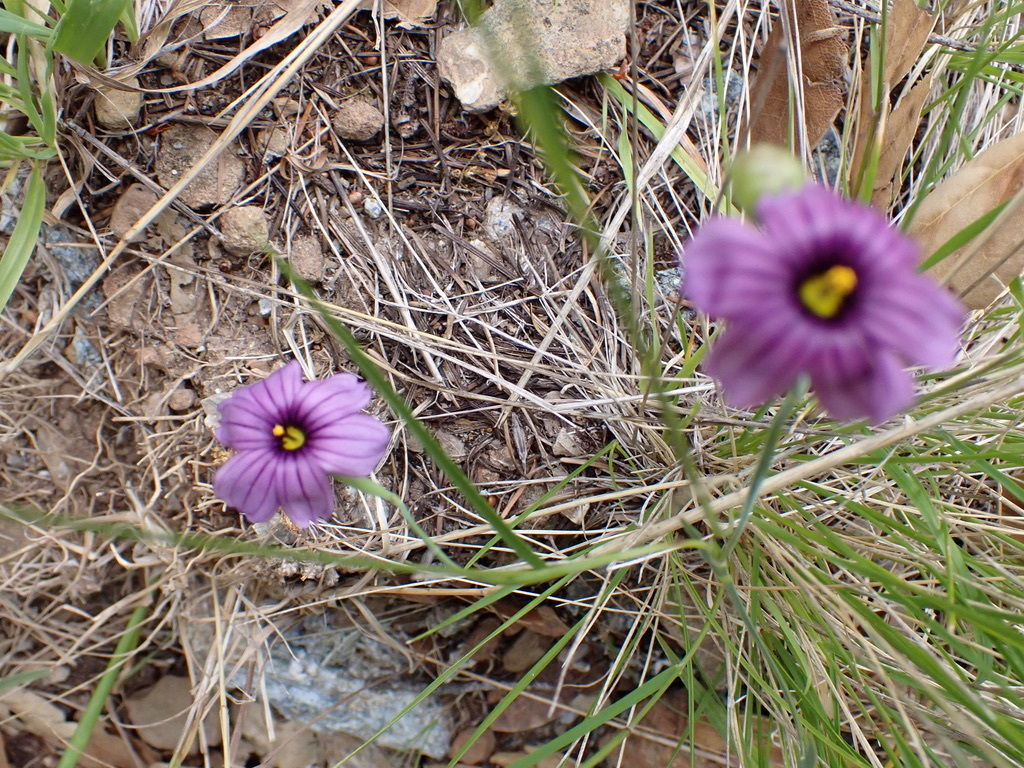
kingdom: Plantae
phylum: Tracheophyta
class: Liliopsida
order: Asparagales
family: Iridaceae
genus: Sisyrinchium
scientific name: Sisyrinchium bellum
